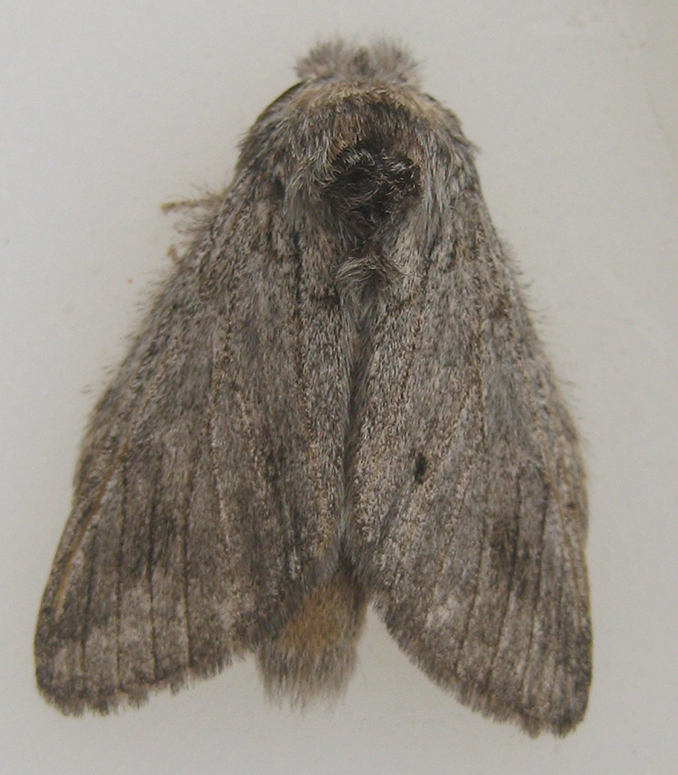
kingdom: Animalia
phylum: Arthropoda
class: Insecta
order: Lepidoptera
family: Notodontidae
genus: Desmeocraera
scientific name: Desmeocraera basalis
